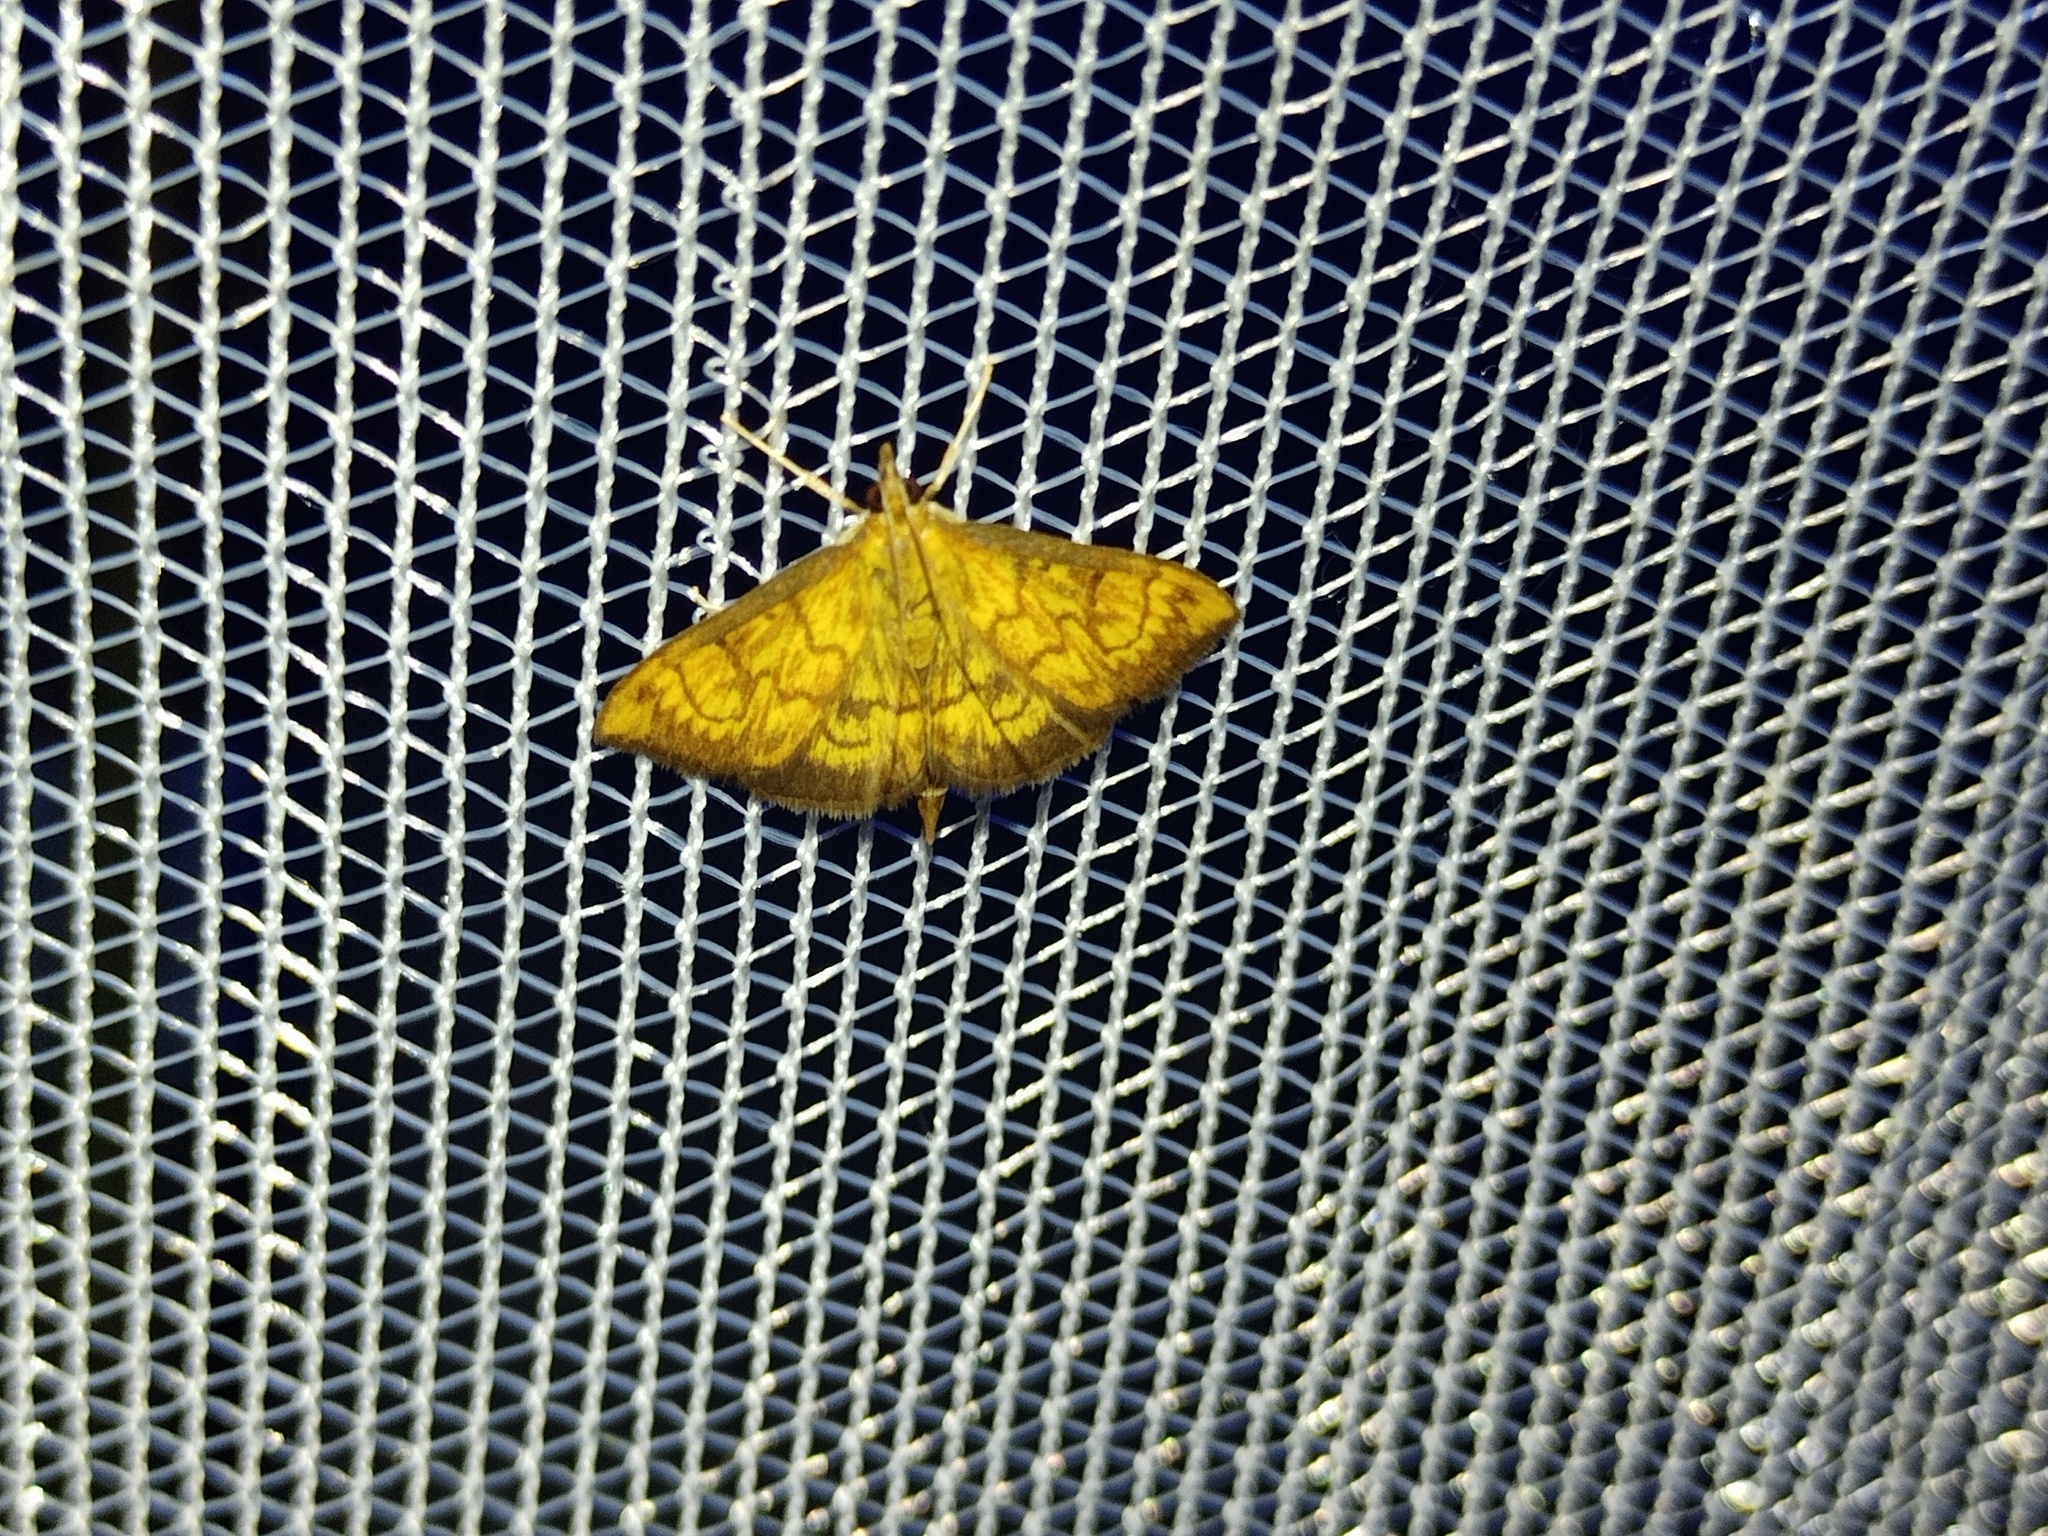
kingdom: Animalia
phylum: Arthropoda
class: Insecta
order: Lepidoptera
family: Crambidae
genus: Ecpyrrhorrhoe
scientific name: Ecpyrrhorrhoe rubiginalis
